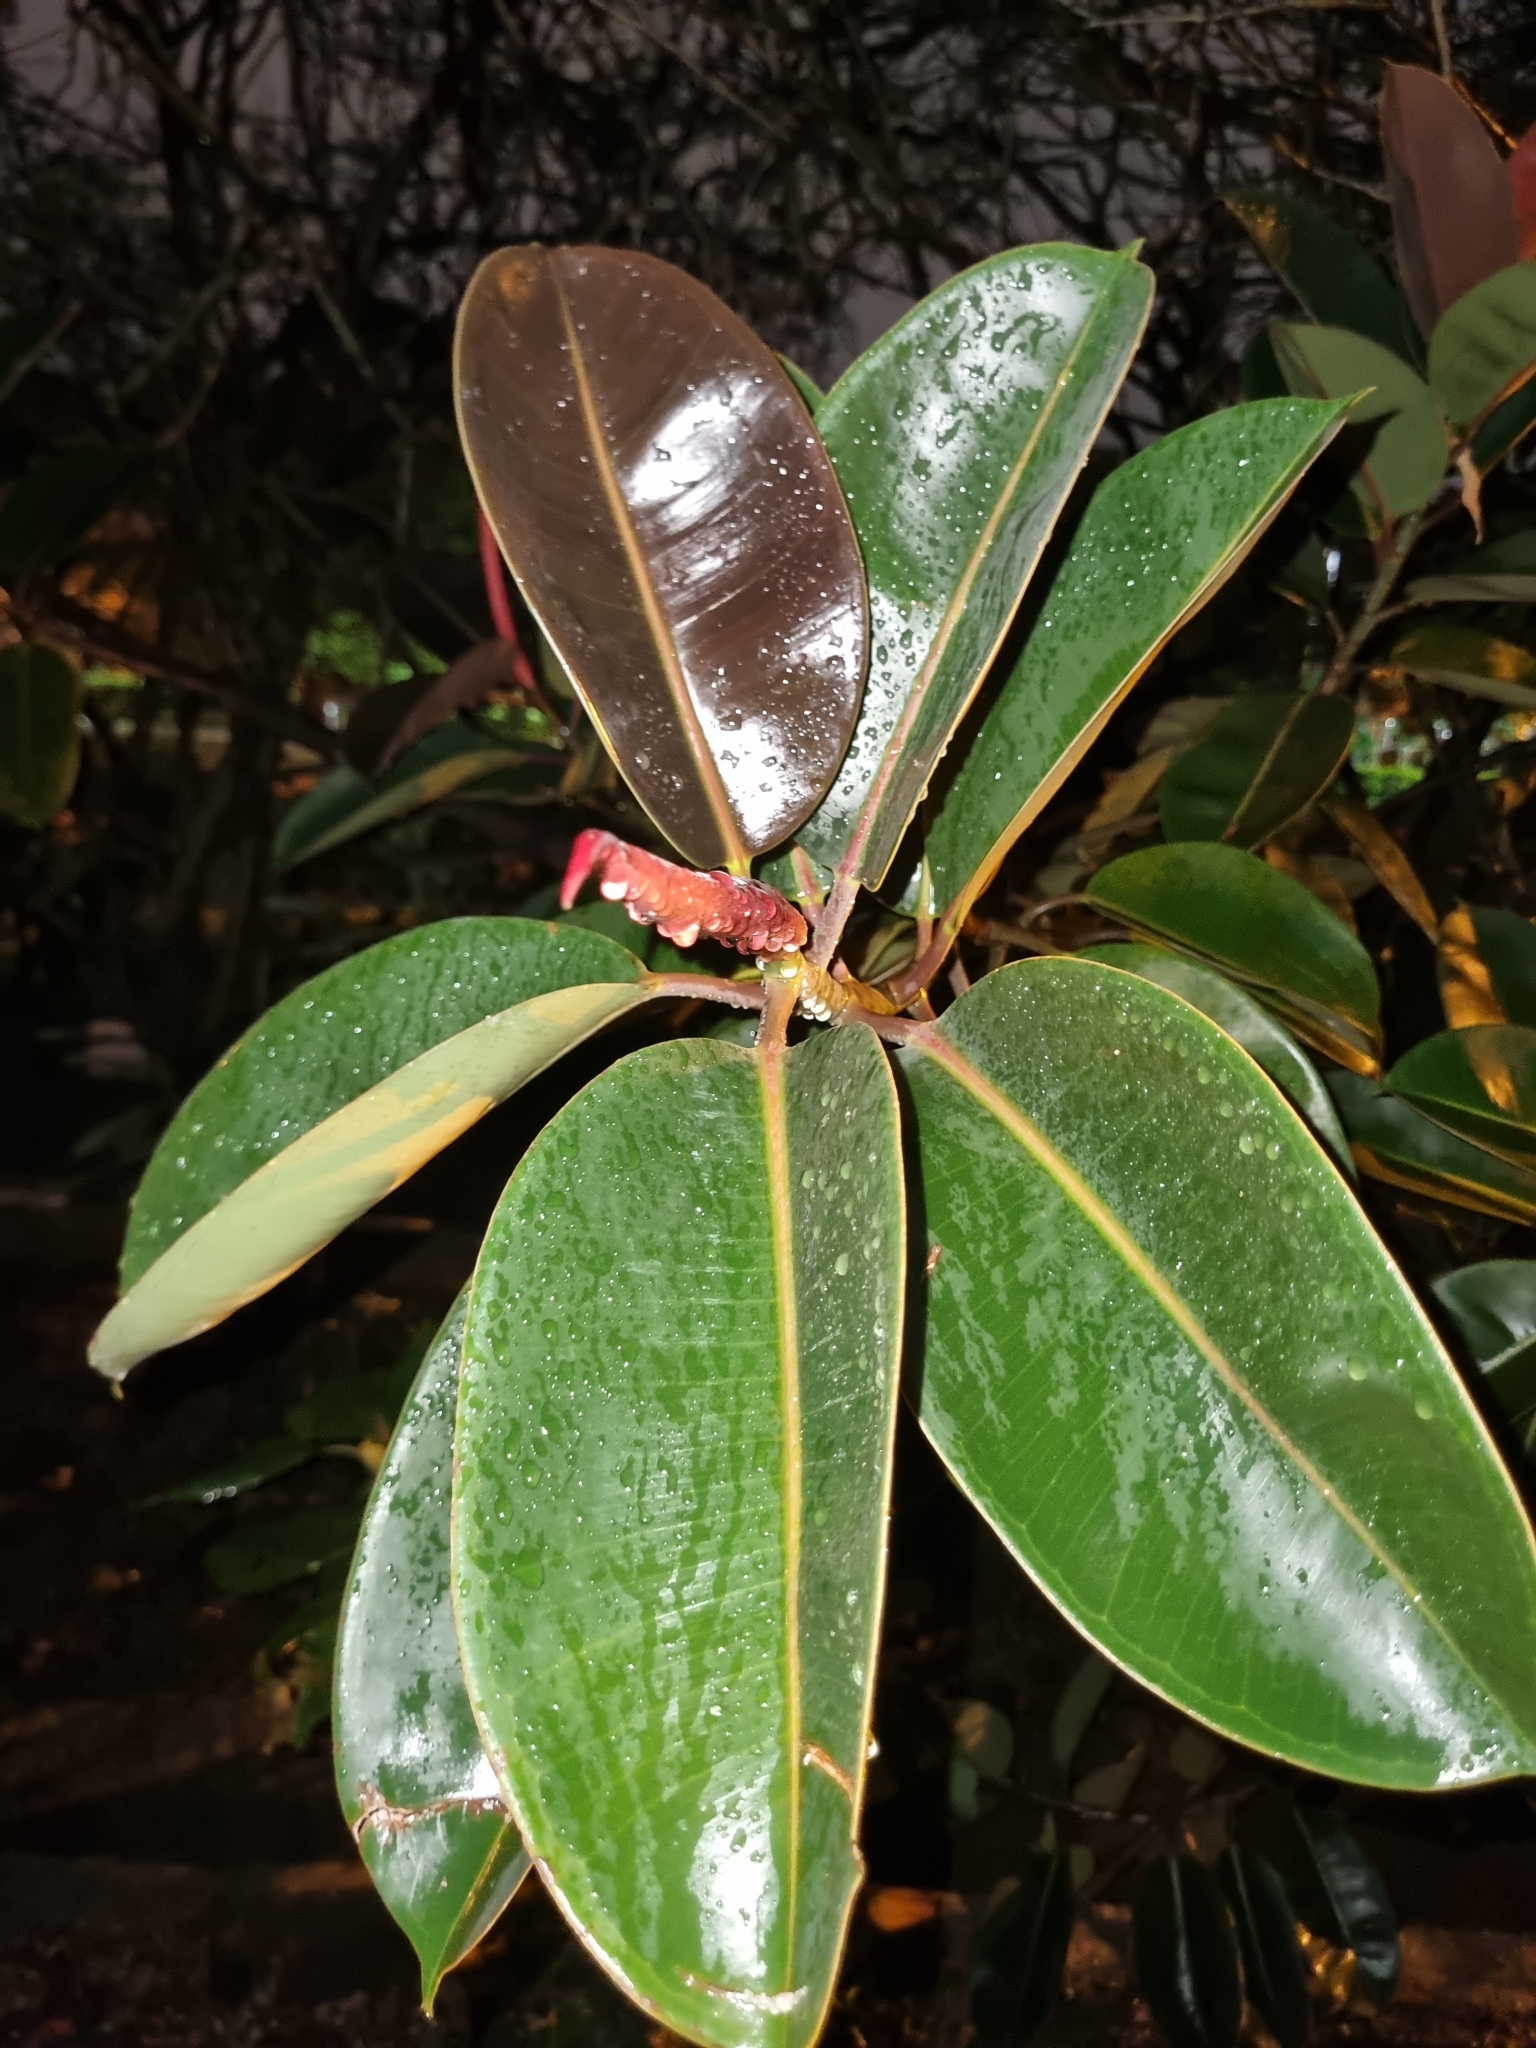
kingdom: Plantae
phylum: Tracheophyta
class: Magnoliopsida
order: Rosales
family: Moraceae
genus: Ficus
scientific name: Ficus elastica
